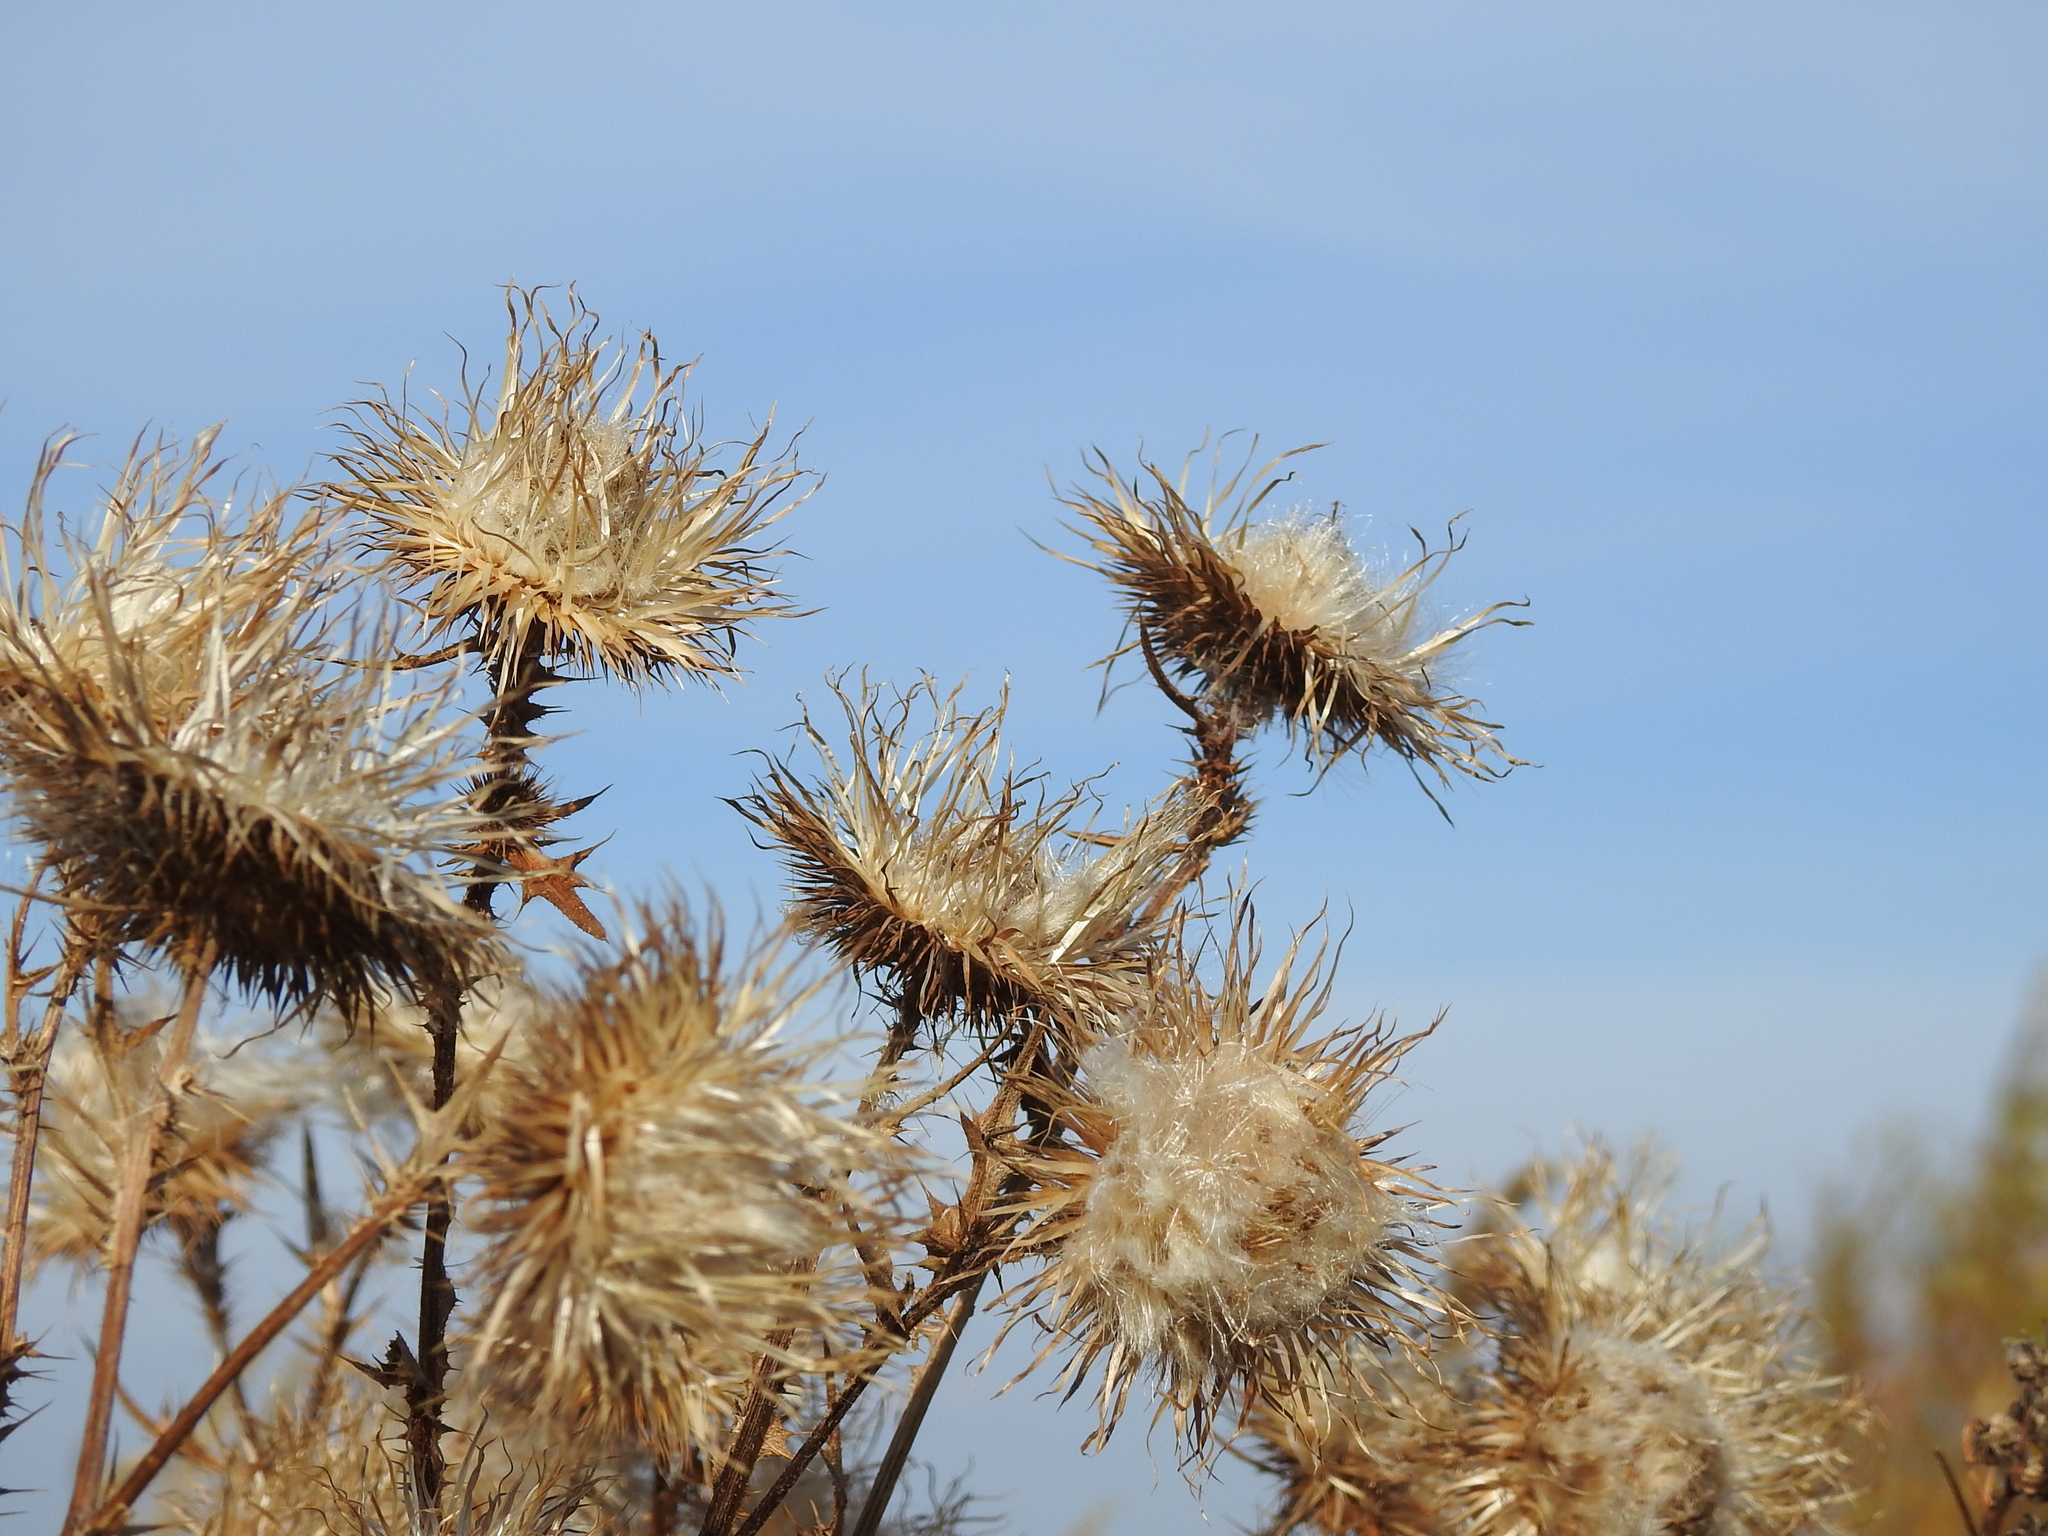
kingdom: Plantae
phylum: Tracheophyta
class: Magnoliopsida
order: Asterales
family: Asteraceae
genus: Carduus
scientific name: Carduus
